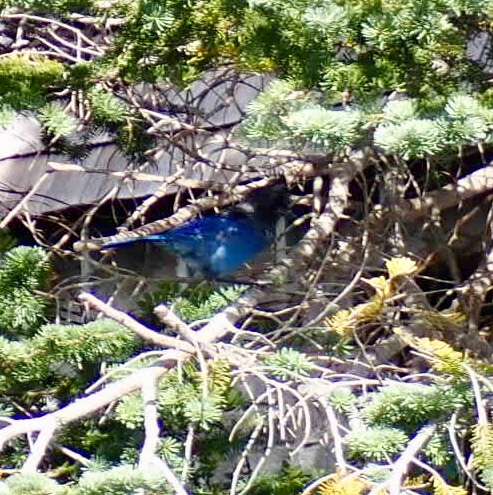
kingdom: Animalia
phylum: Chordata
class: Aves
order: Passeriformes
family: Corvidae
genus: Cyanocitta
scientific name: Cyanocitta stelleri
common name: Steller's jay
